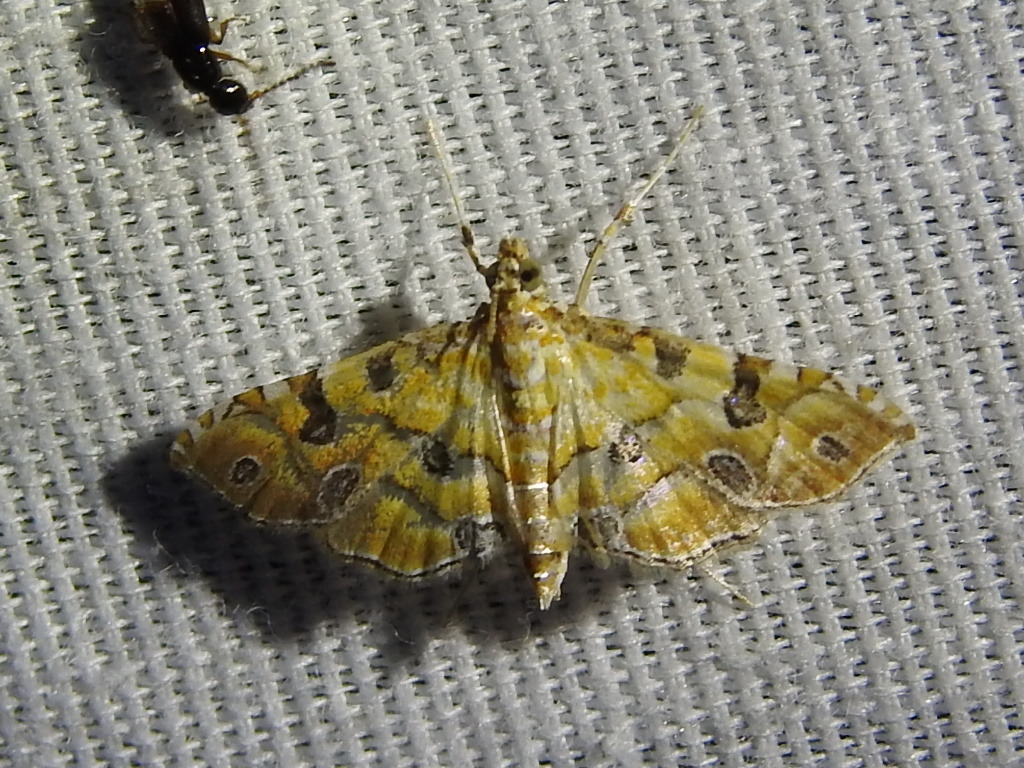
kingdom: Animalia
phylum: Arthropoda
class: Insecta
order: Lepidoptera
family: Crambidae
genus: Ommatospila
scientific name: Ommatospila narcaeusalis
